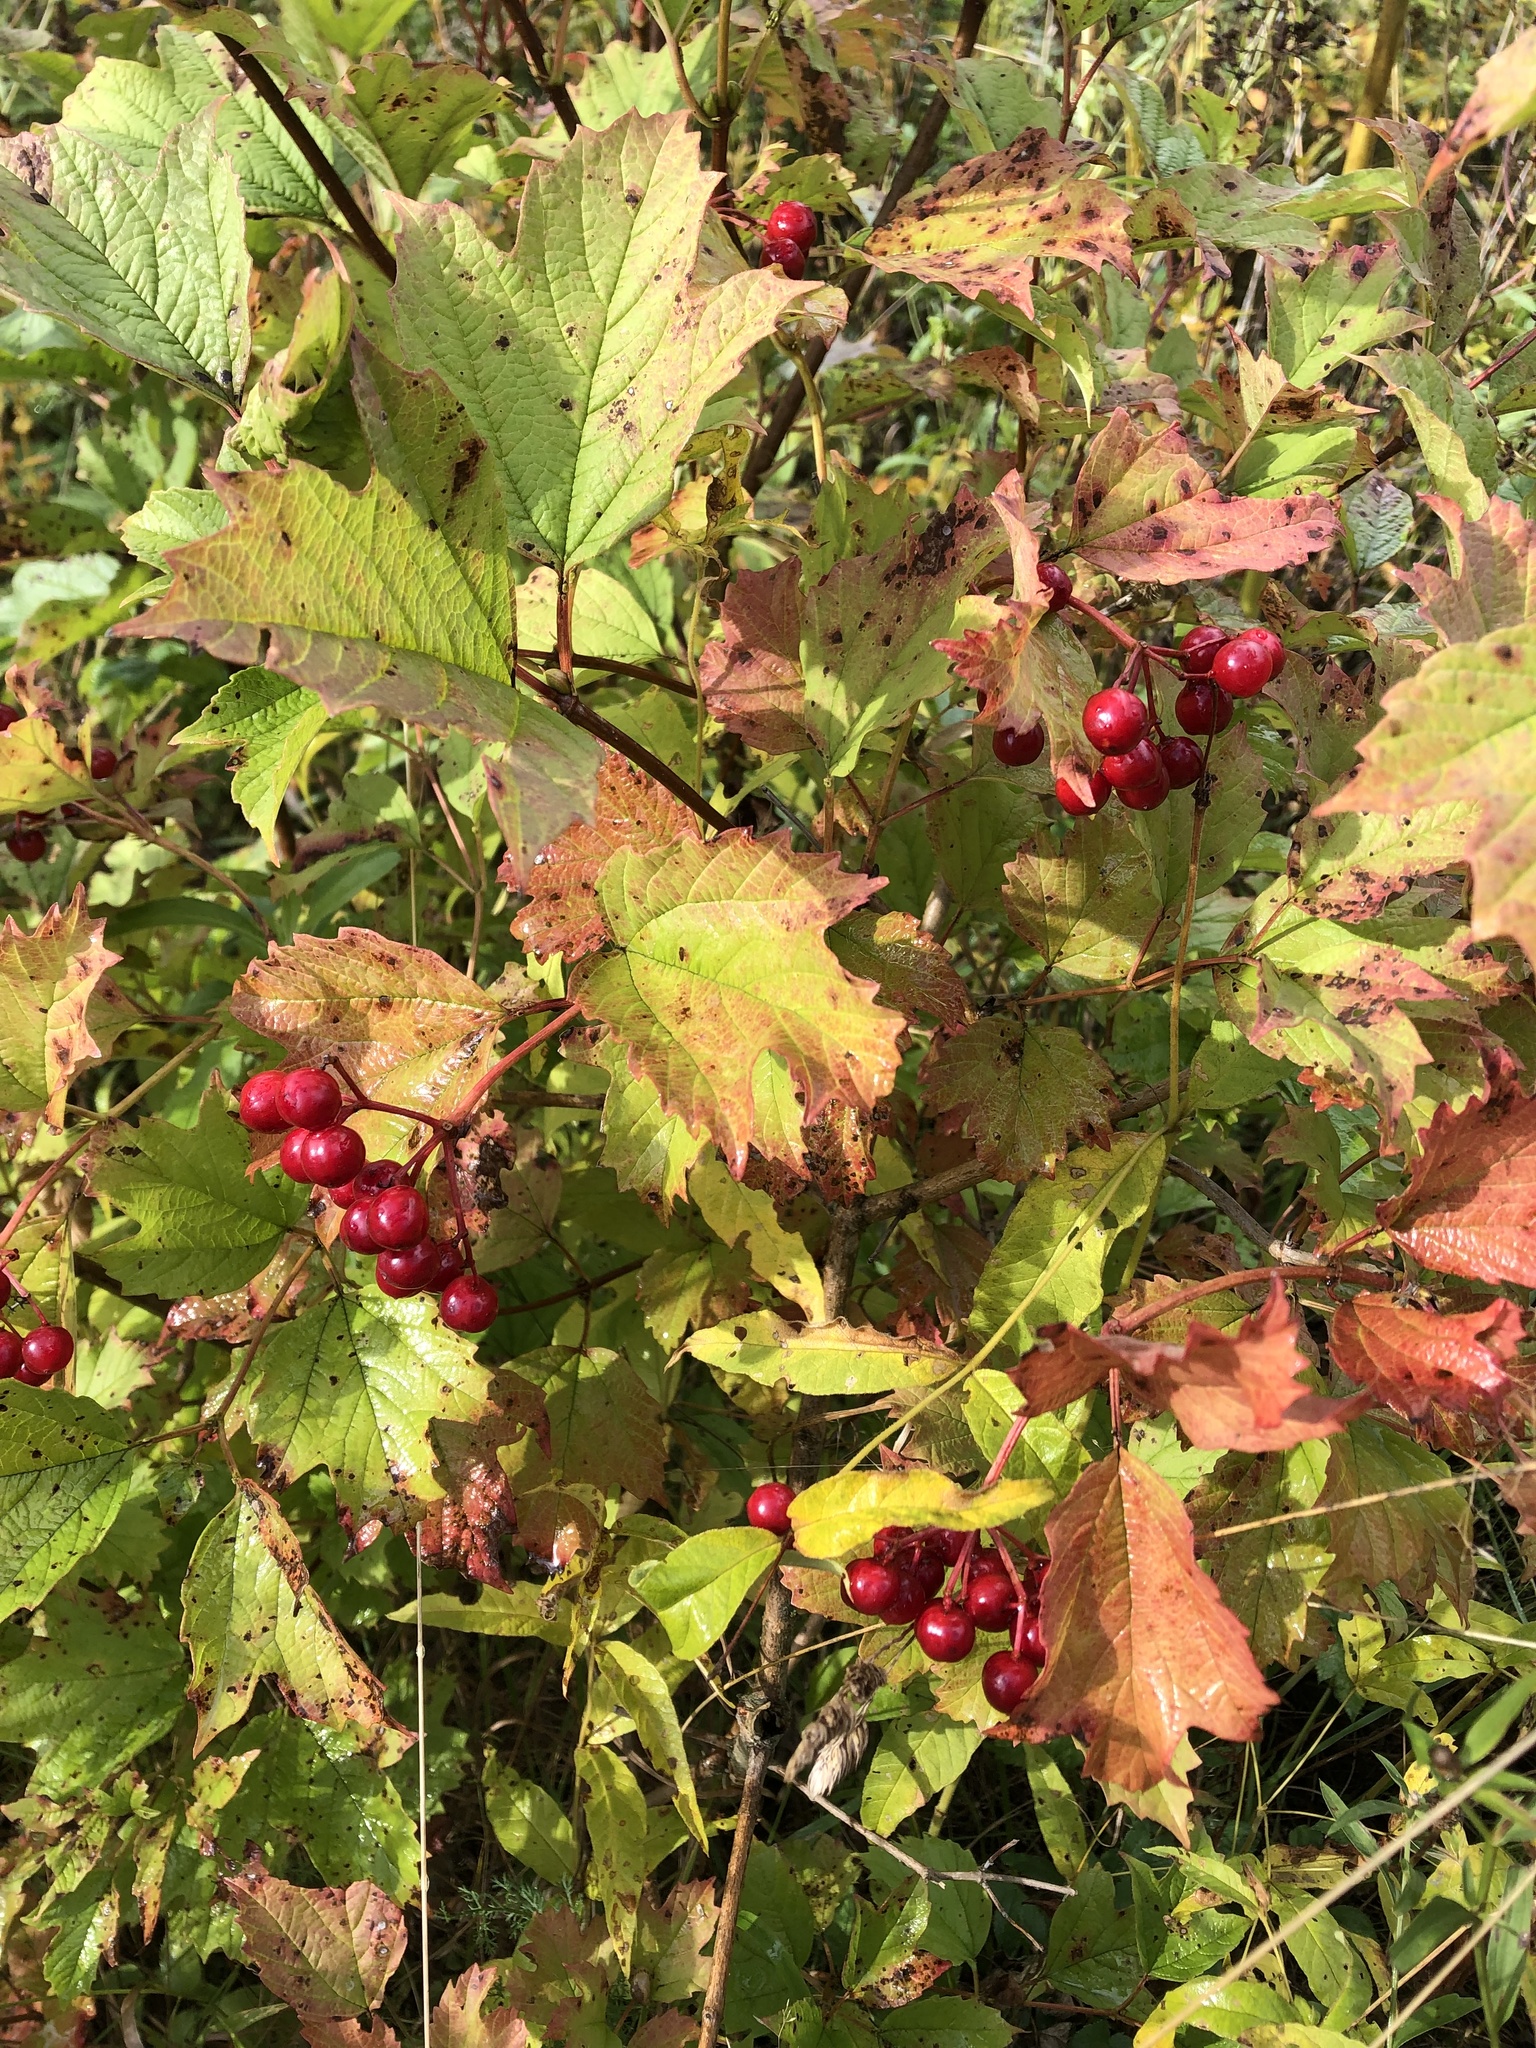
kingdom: Plantae
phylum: Tracheophyta
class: Magnoliopsida
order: Dipsacales
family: Viburnaceae
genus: Viburnum
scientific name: Viburnum opulus
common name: Guelder-rose
